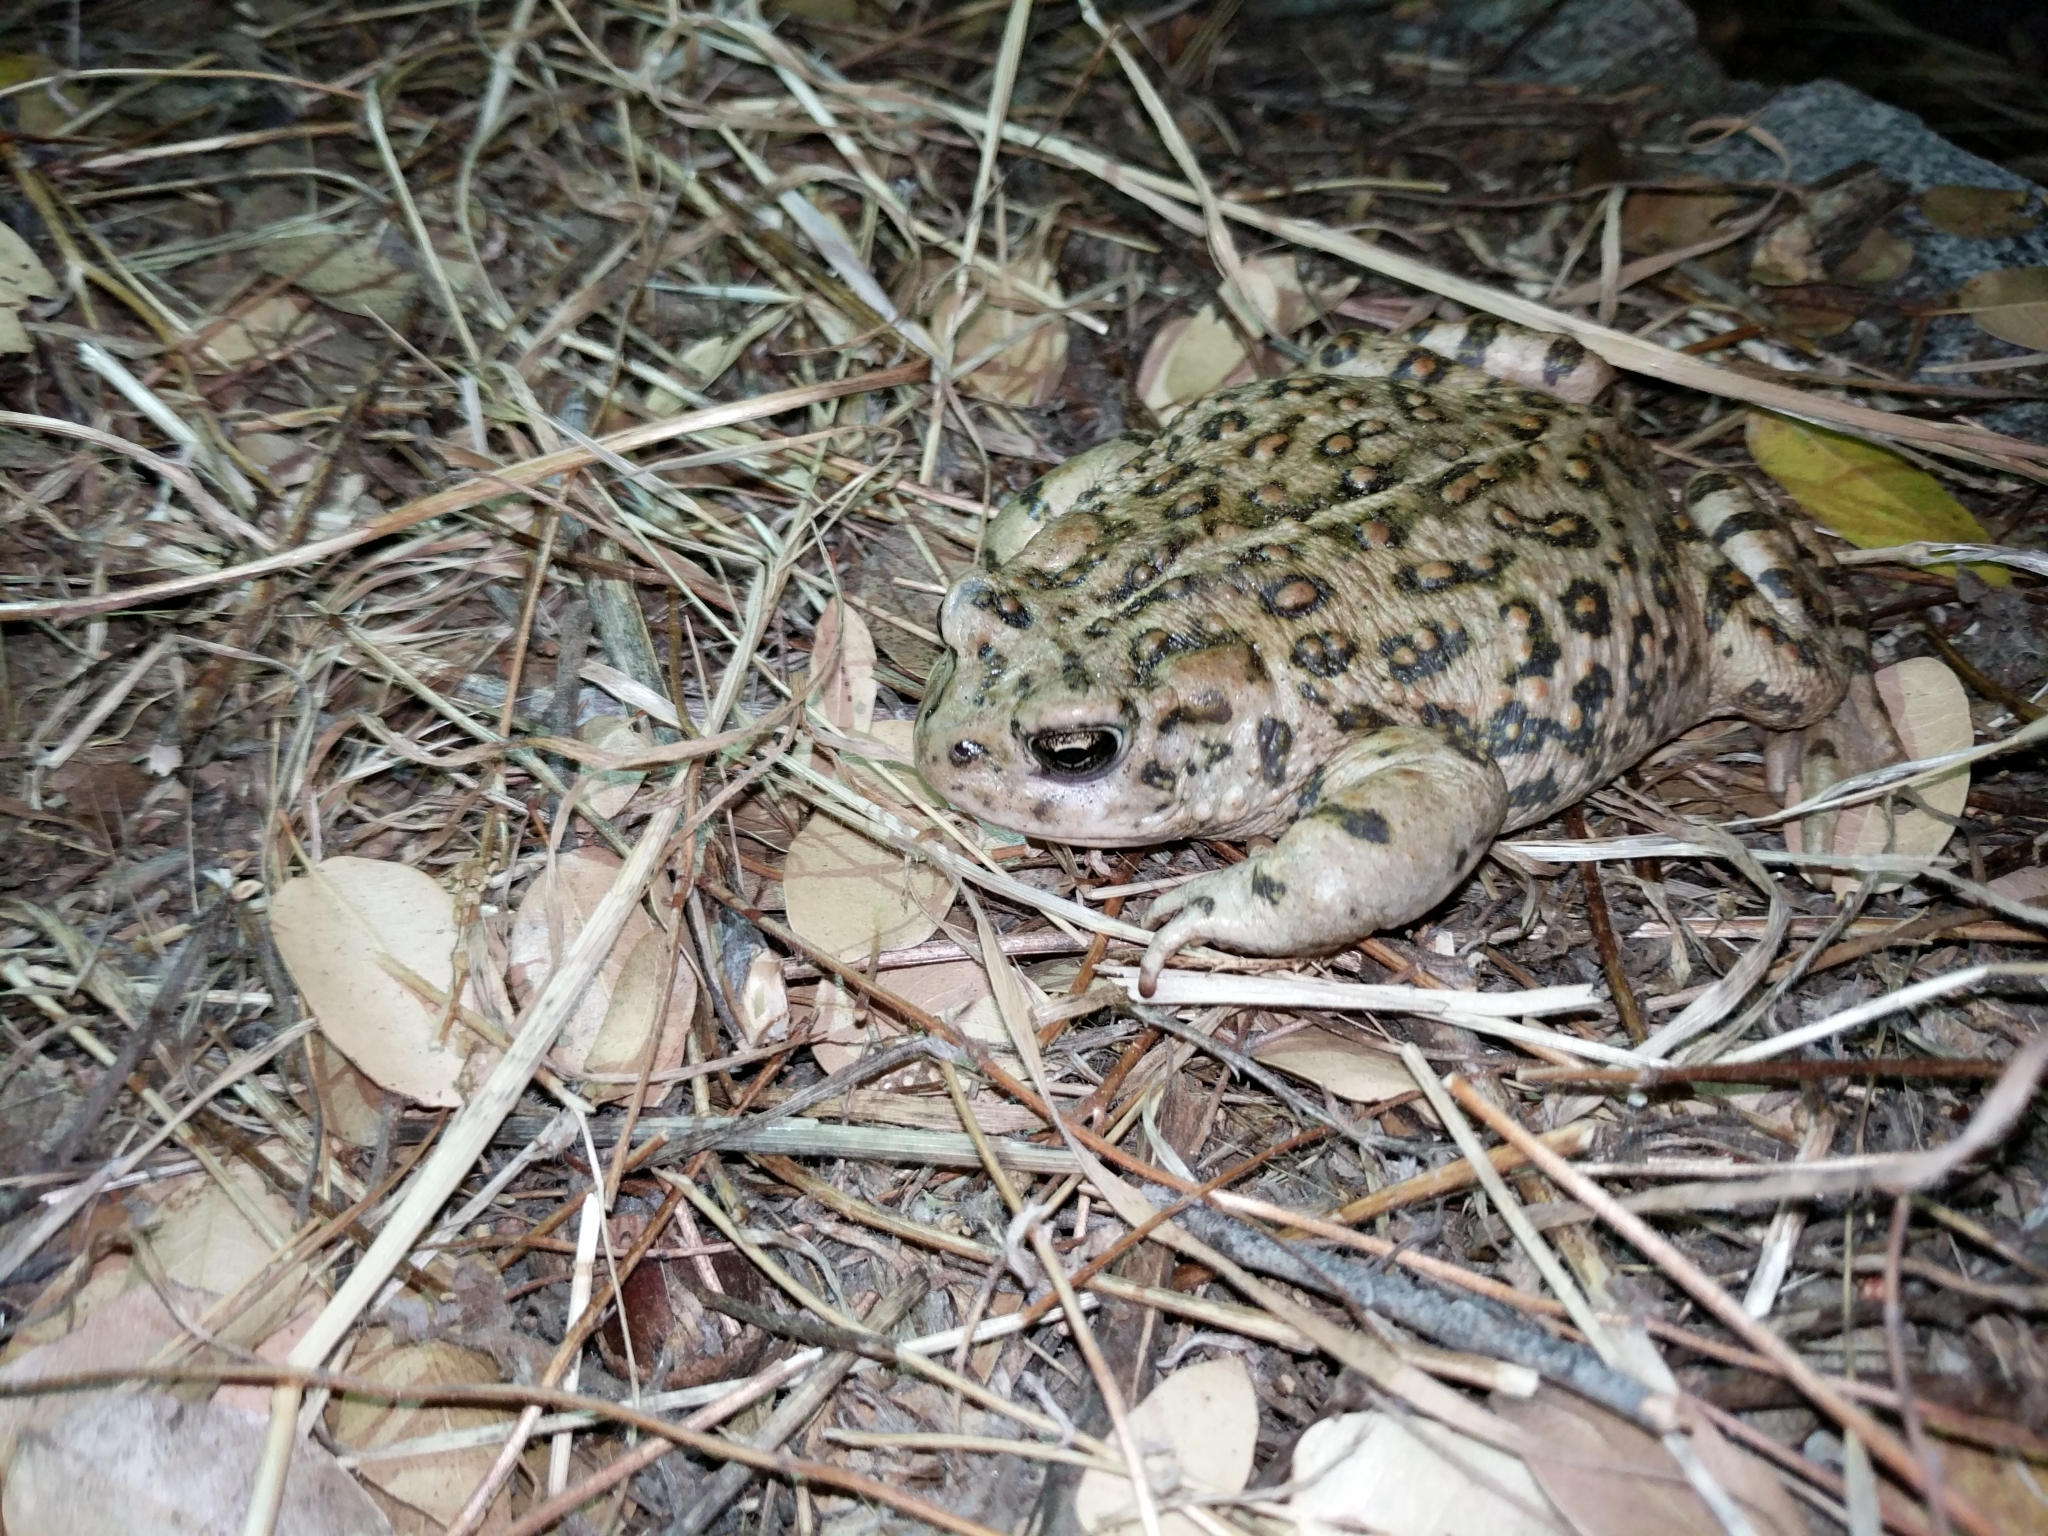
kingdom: Animalia
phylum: Chordata
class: Amphibia
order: Anura
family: Bufonidae
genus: Anaxyrus
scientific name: Anaxyrus boreas
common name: Western toad
